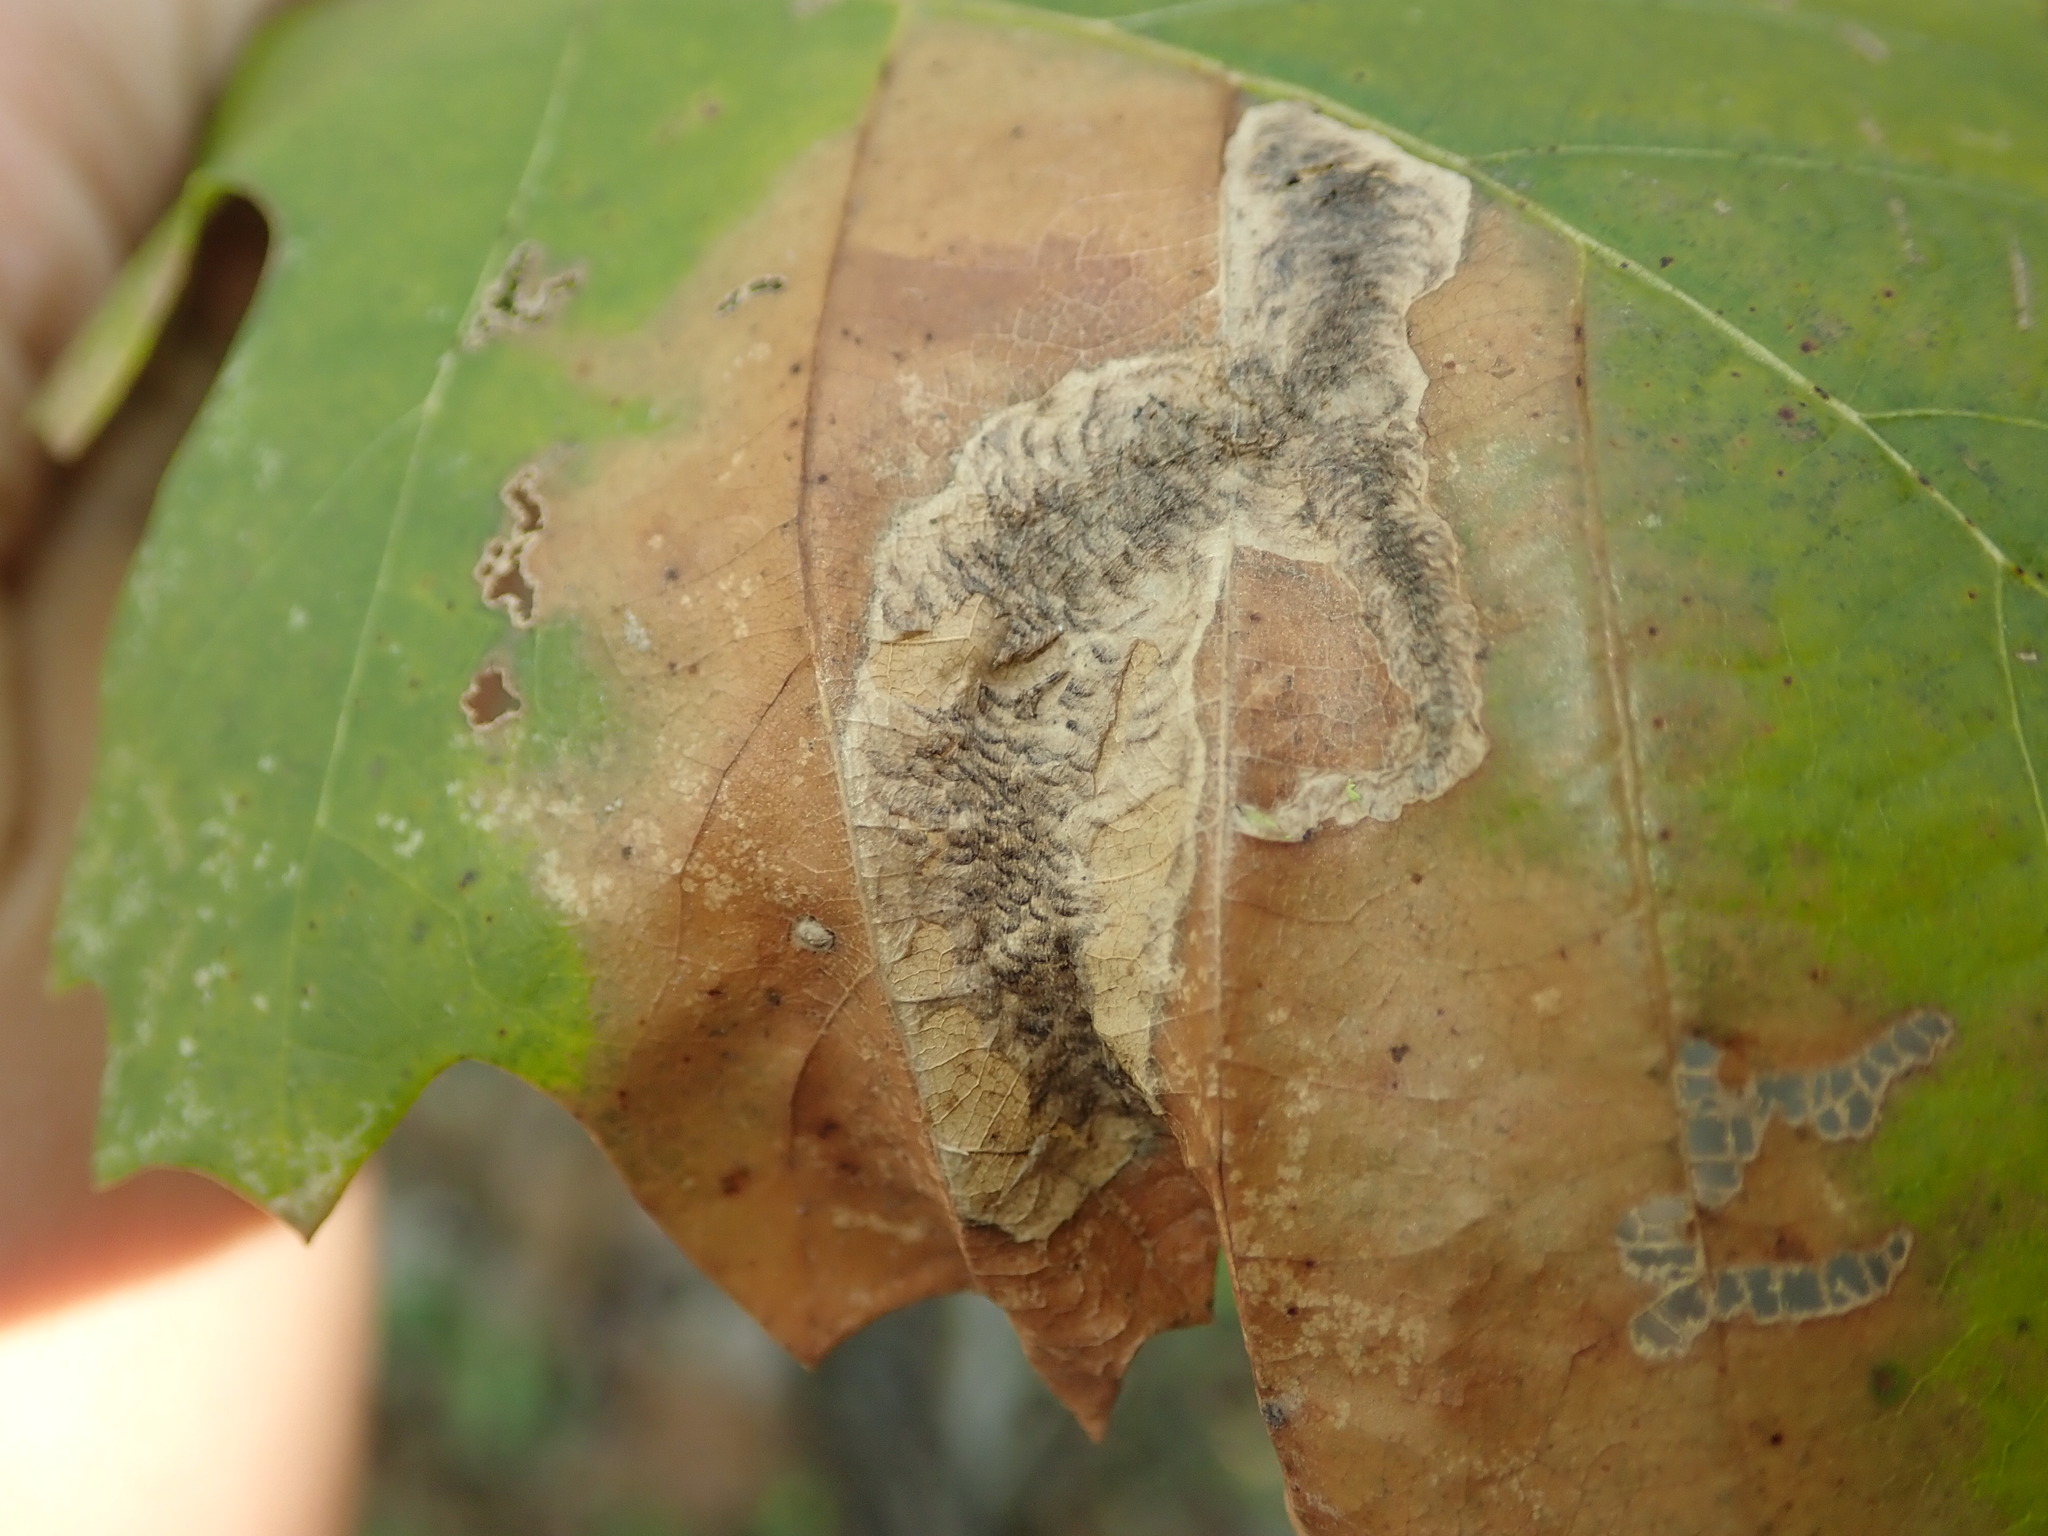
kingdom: Animalia
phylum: Arthropoda
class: Insecta
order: Lepidoptera
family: Tischeriidae
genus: Coptotriche
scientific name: Coptotriche castaneaeella
